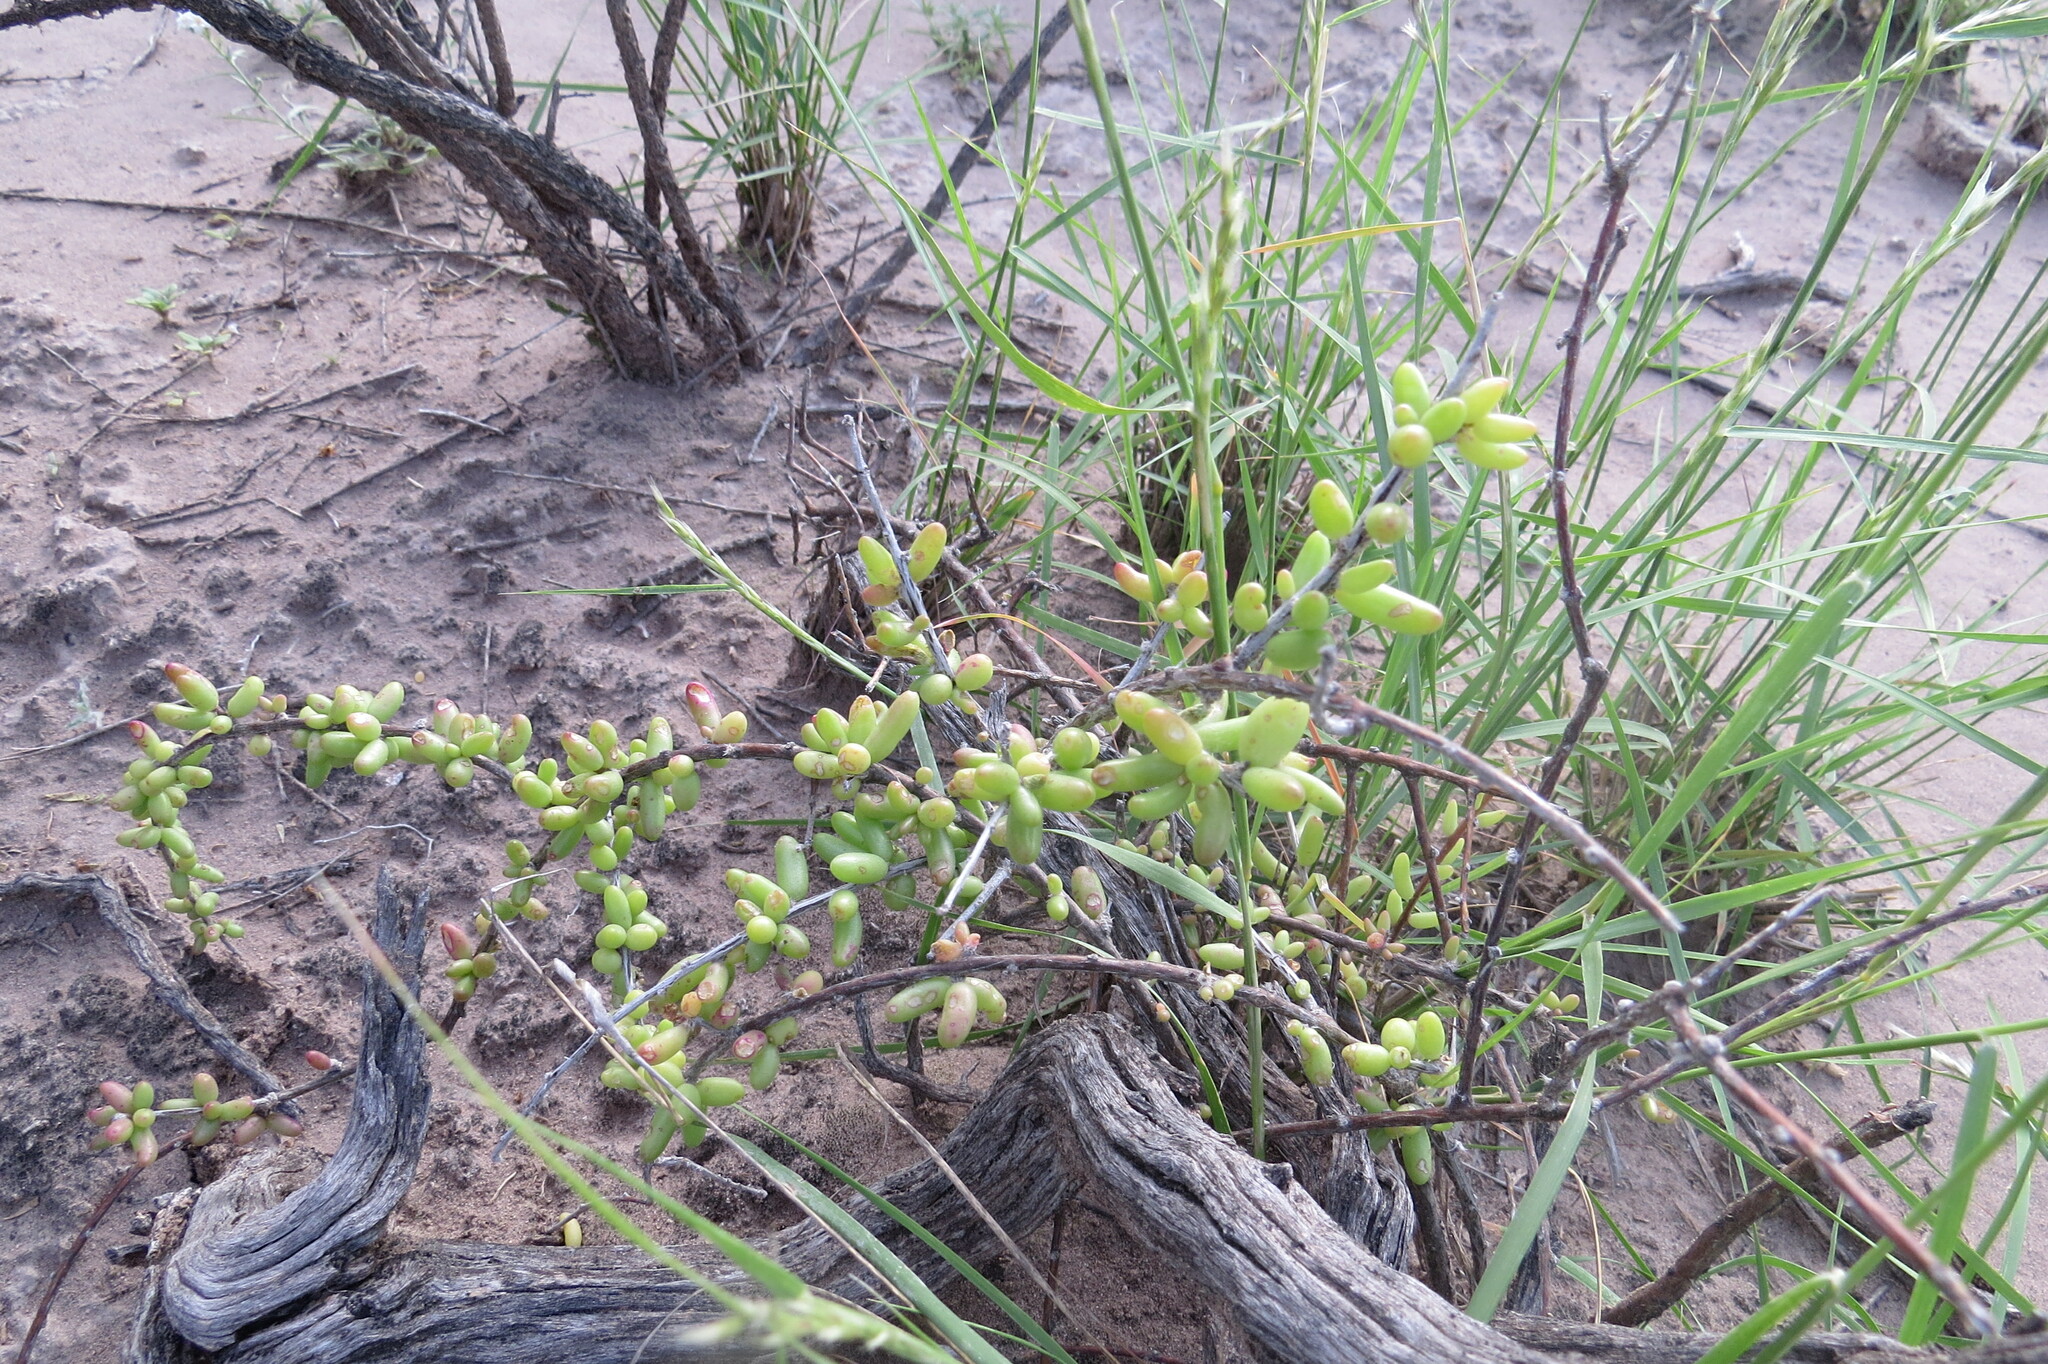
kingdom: Plantae
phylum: Tracheophyta
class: Magnoliopsida
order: Caryophyllales
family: Anacampserotaceae
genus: Grahamia
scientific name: Grahamia bracteata
